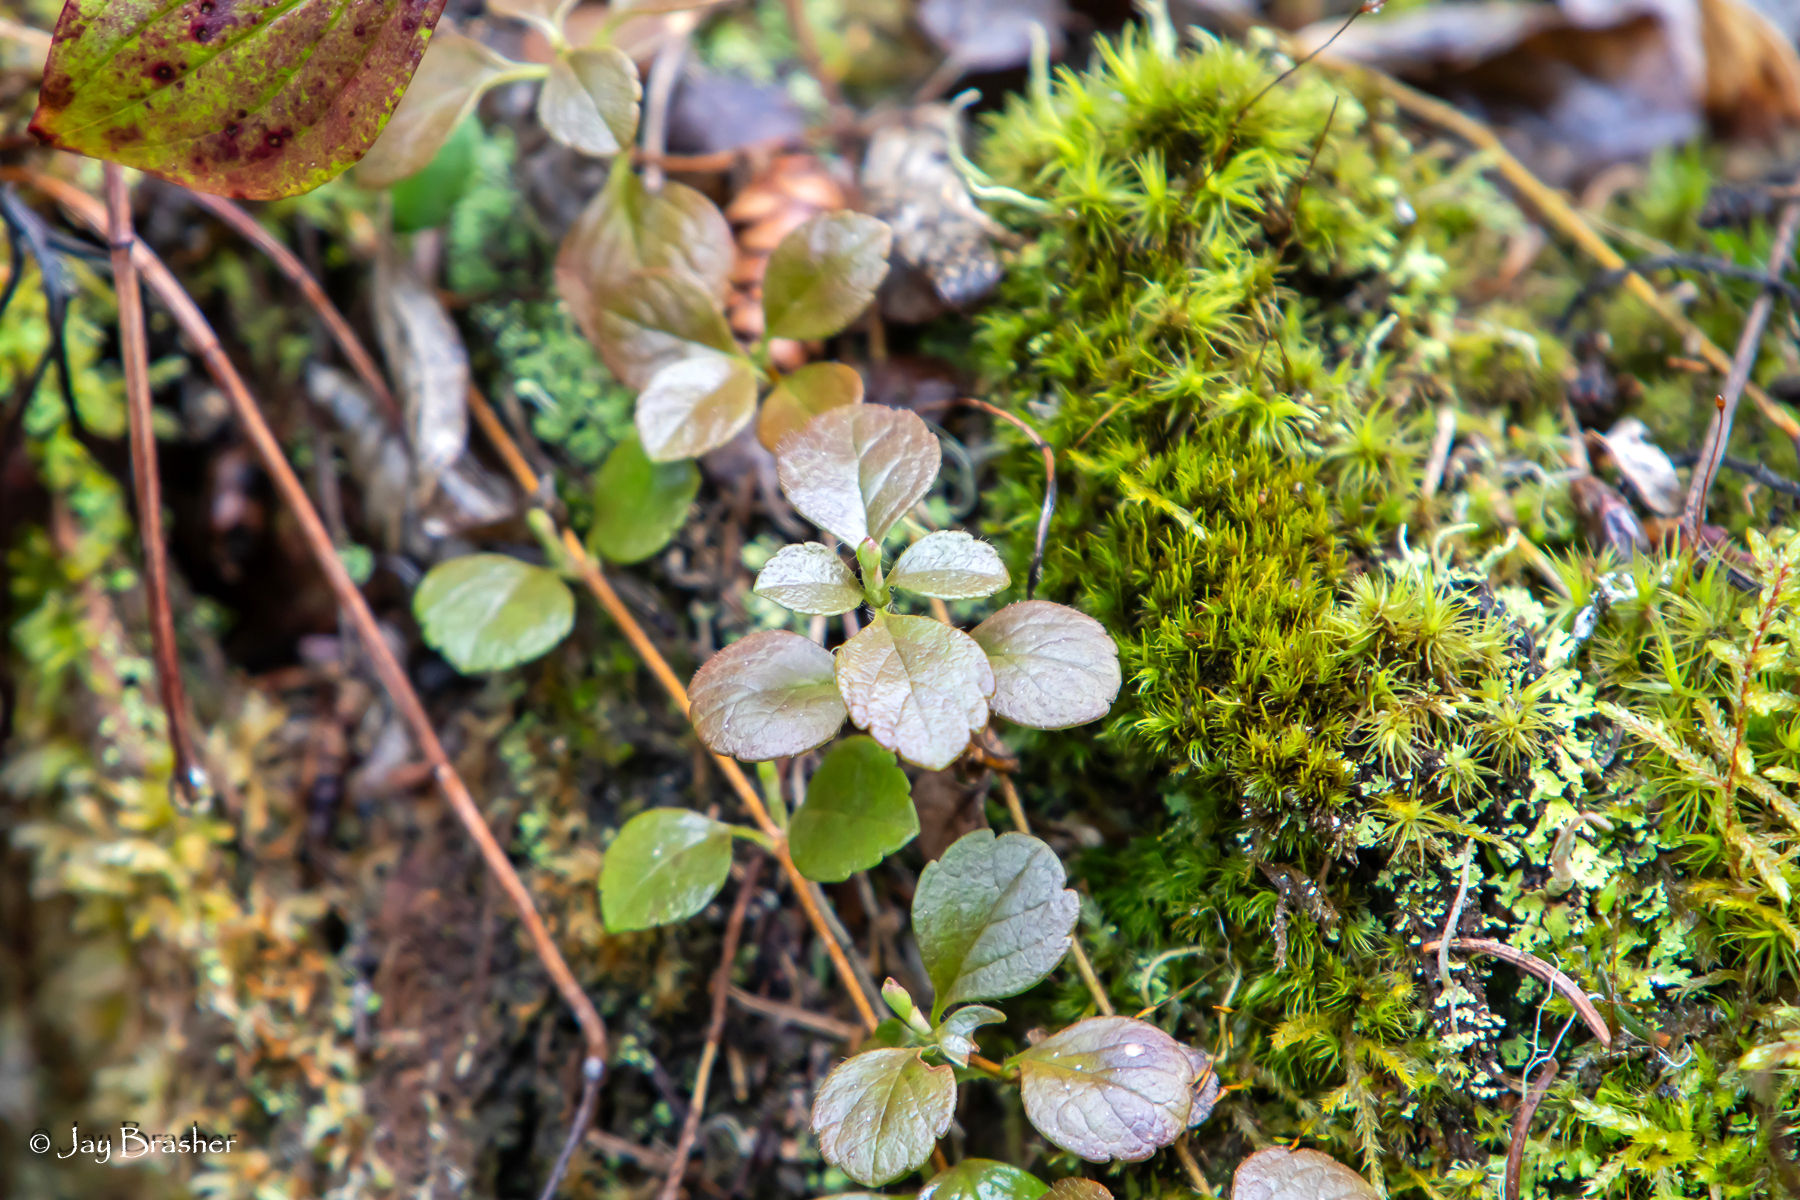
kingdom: Plantae
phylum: Tracheophyta
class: Magnoliopsida
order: Dipsacales
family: Caprifoliaceae
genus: Linnaea
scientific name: Linnaea borealis
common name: Twinflower
